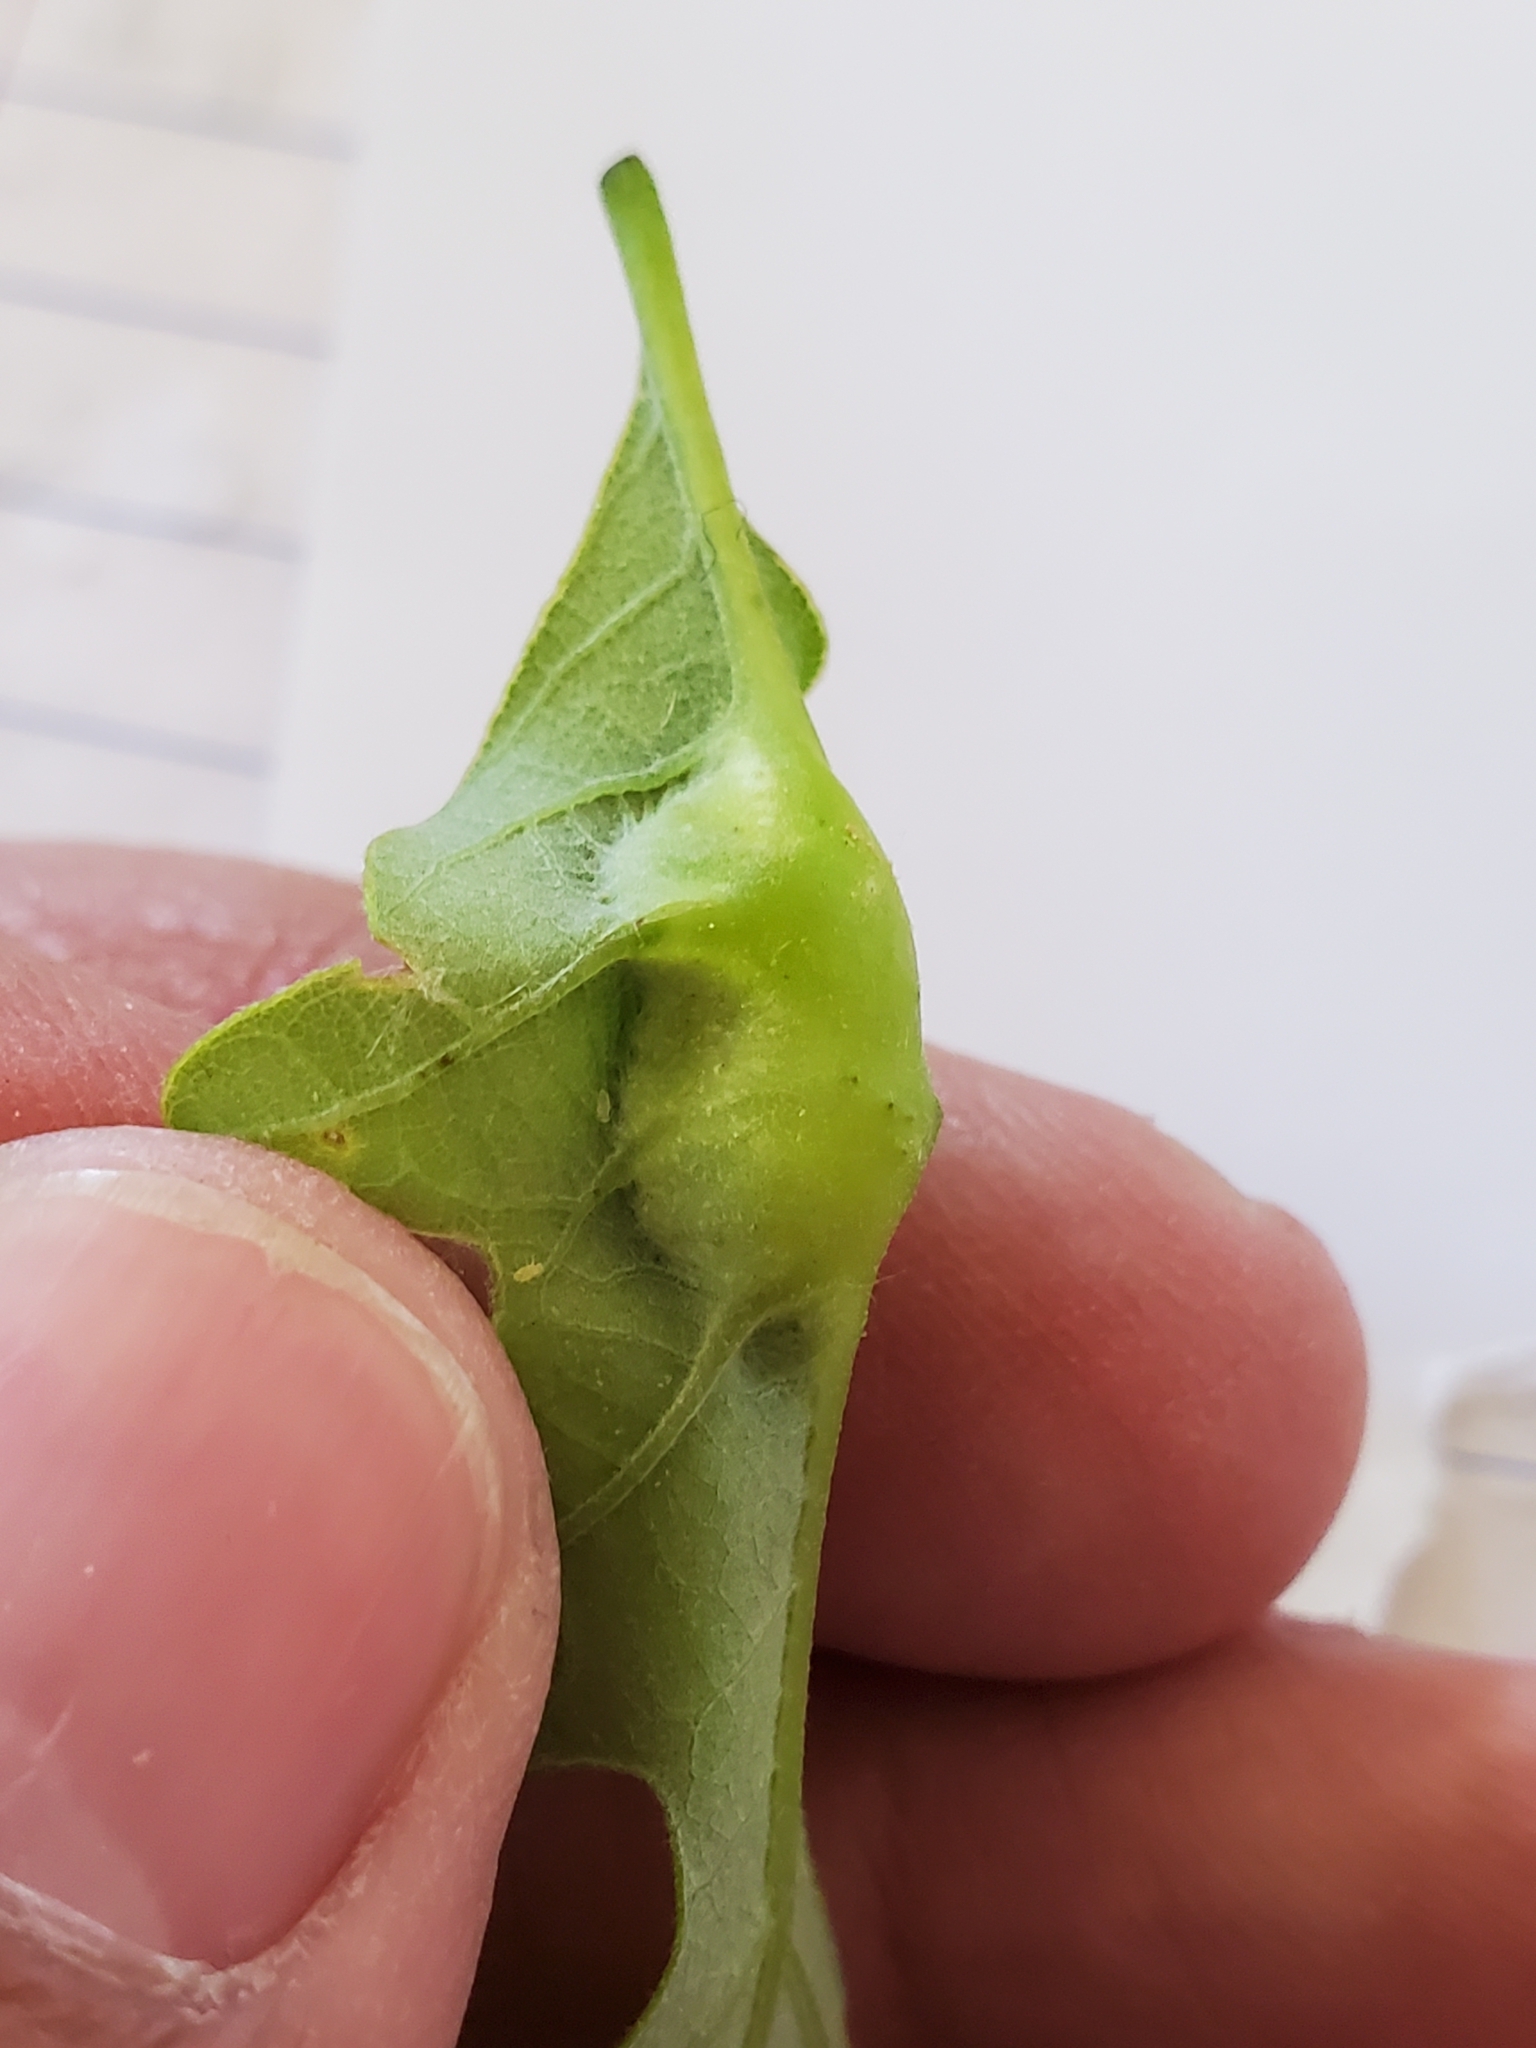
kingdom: Animalia
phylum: Arthropoda
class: Insecta
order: Hymenoptera
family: Cynipidae
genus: Andricus
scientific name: Andricus
